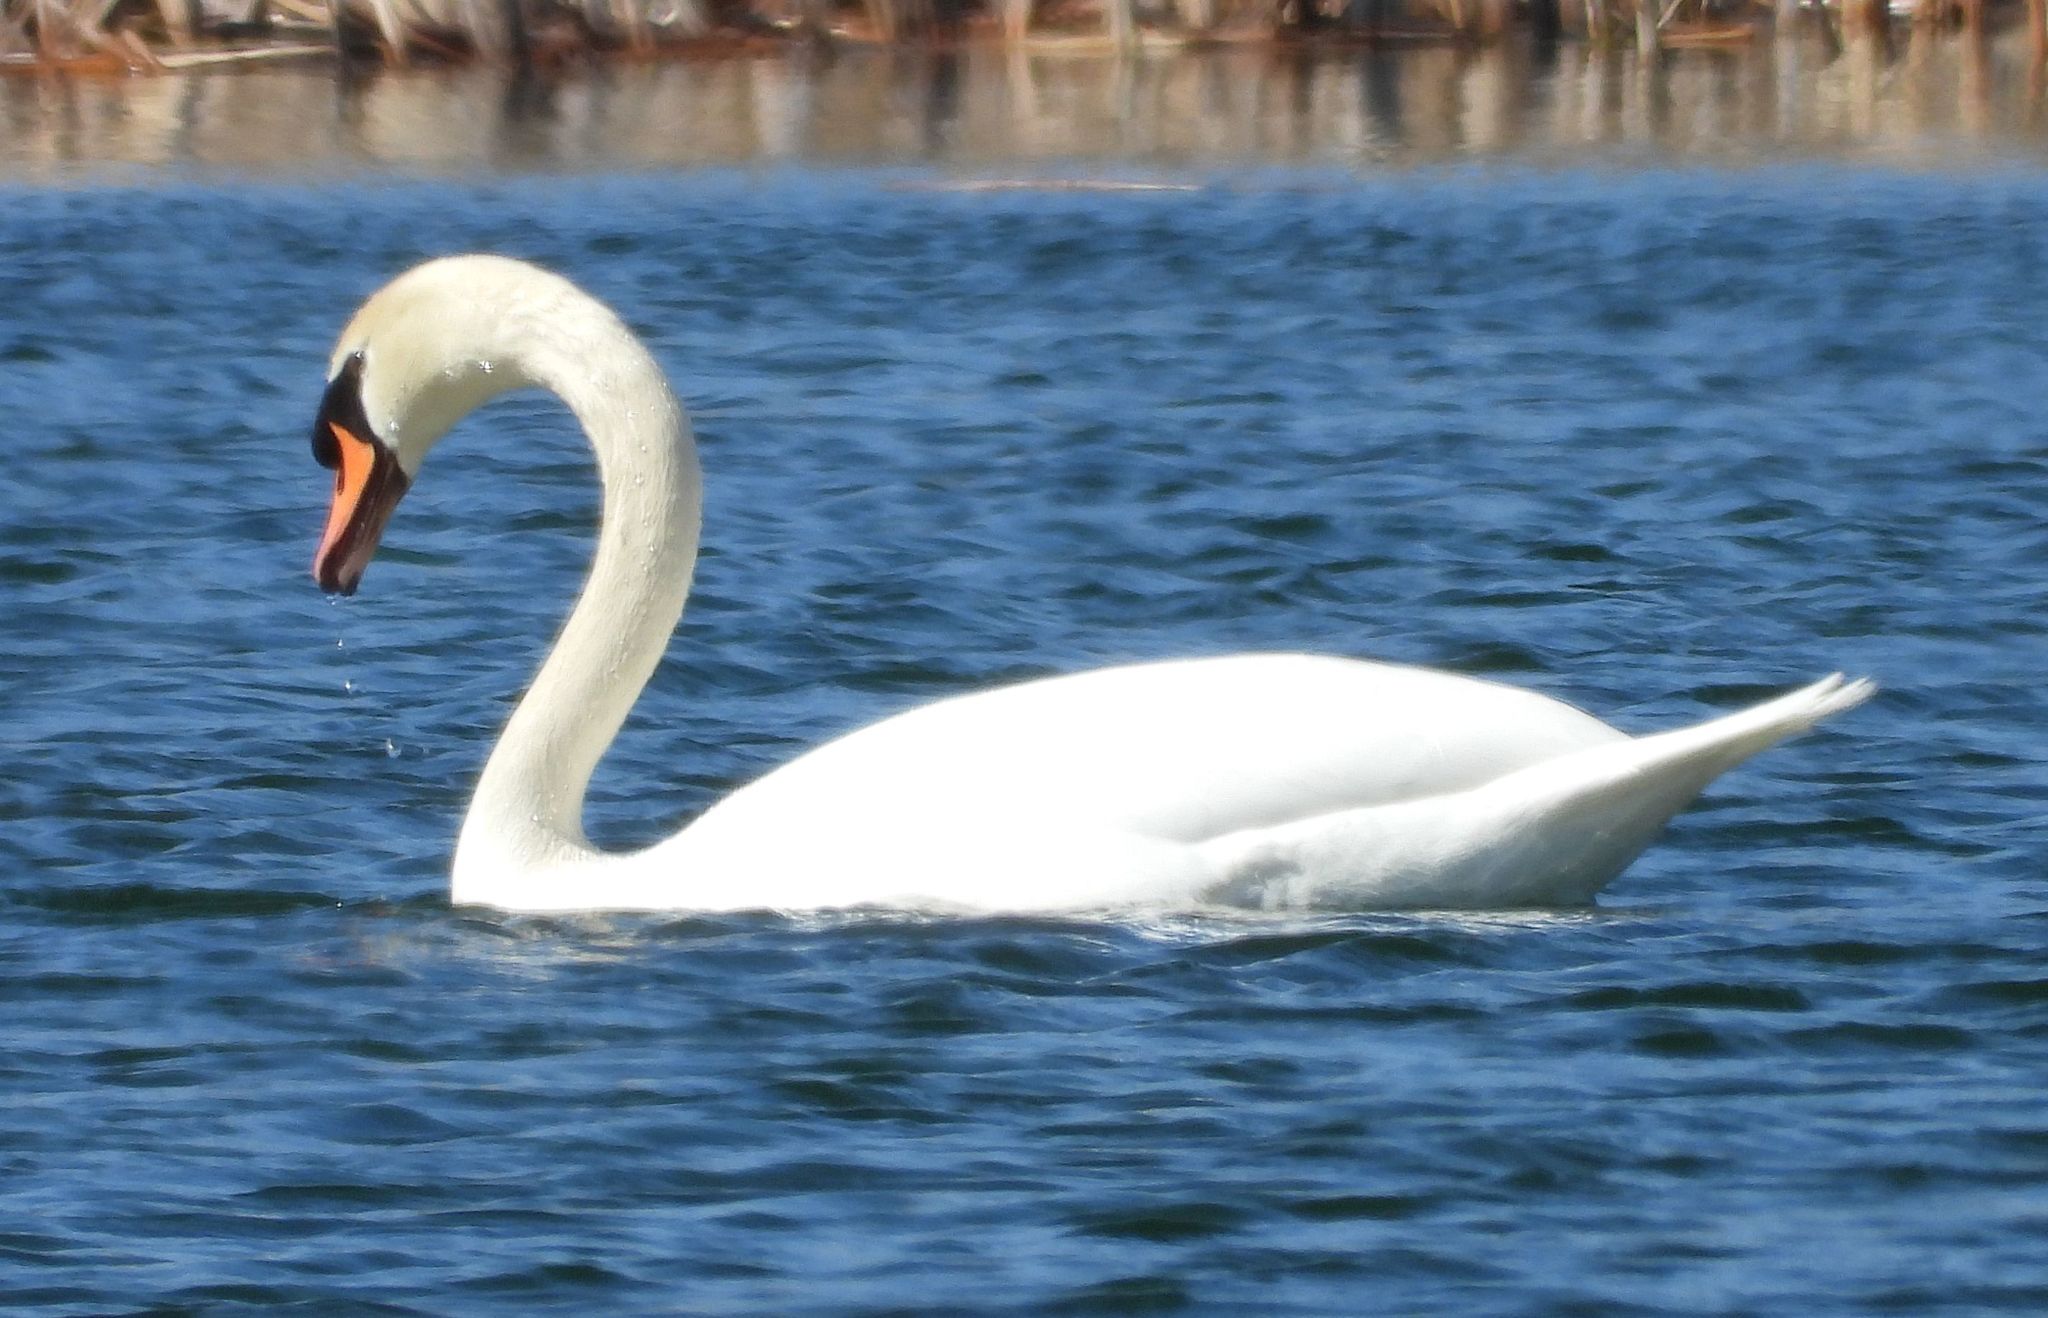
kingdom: Animalia
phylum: Chordata
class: Aves
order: Anseriformes
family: Anatidae
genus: Cygnus
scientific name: Cygnus olor
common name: Mute swan
